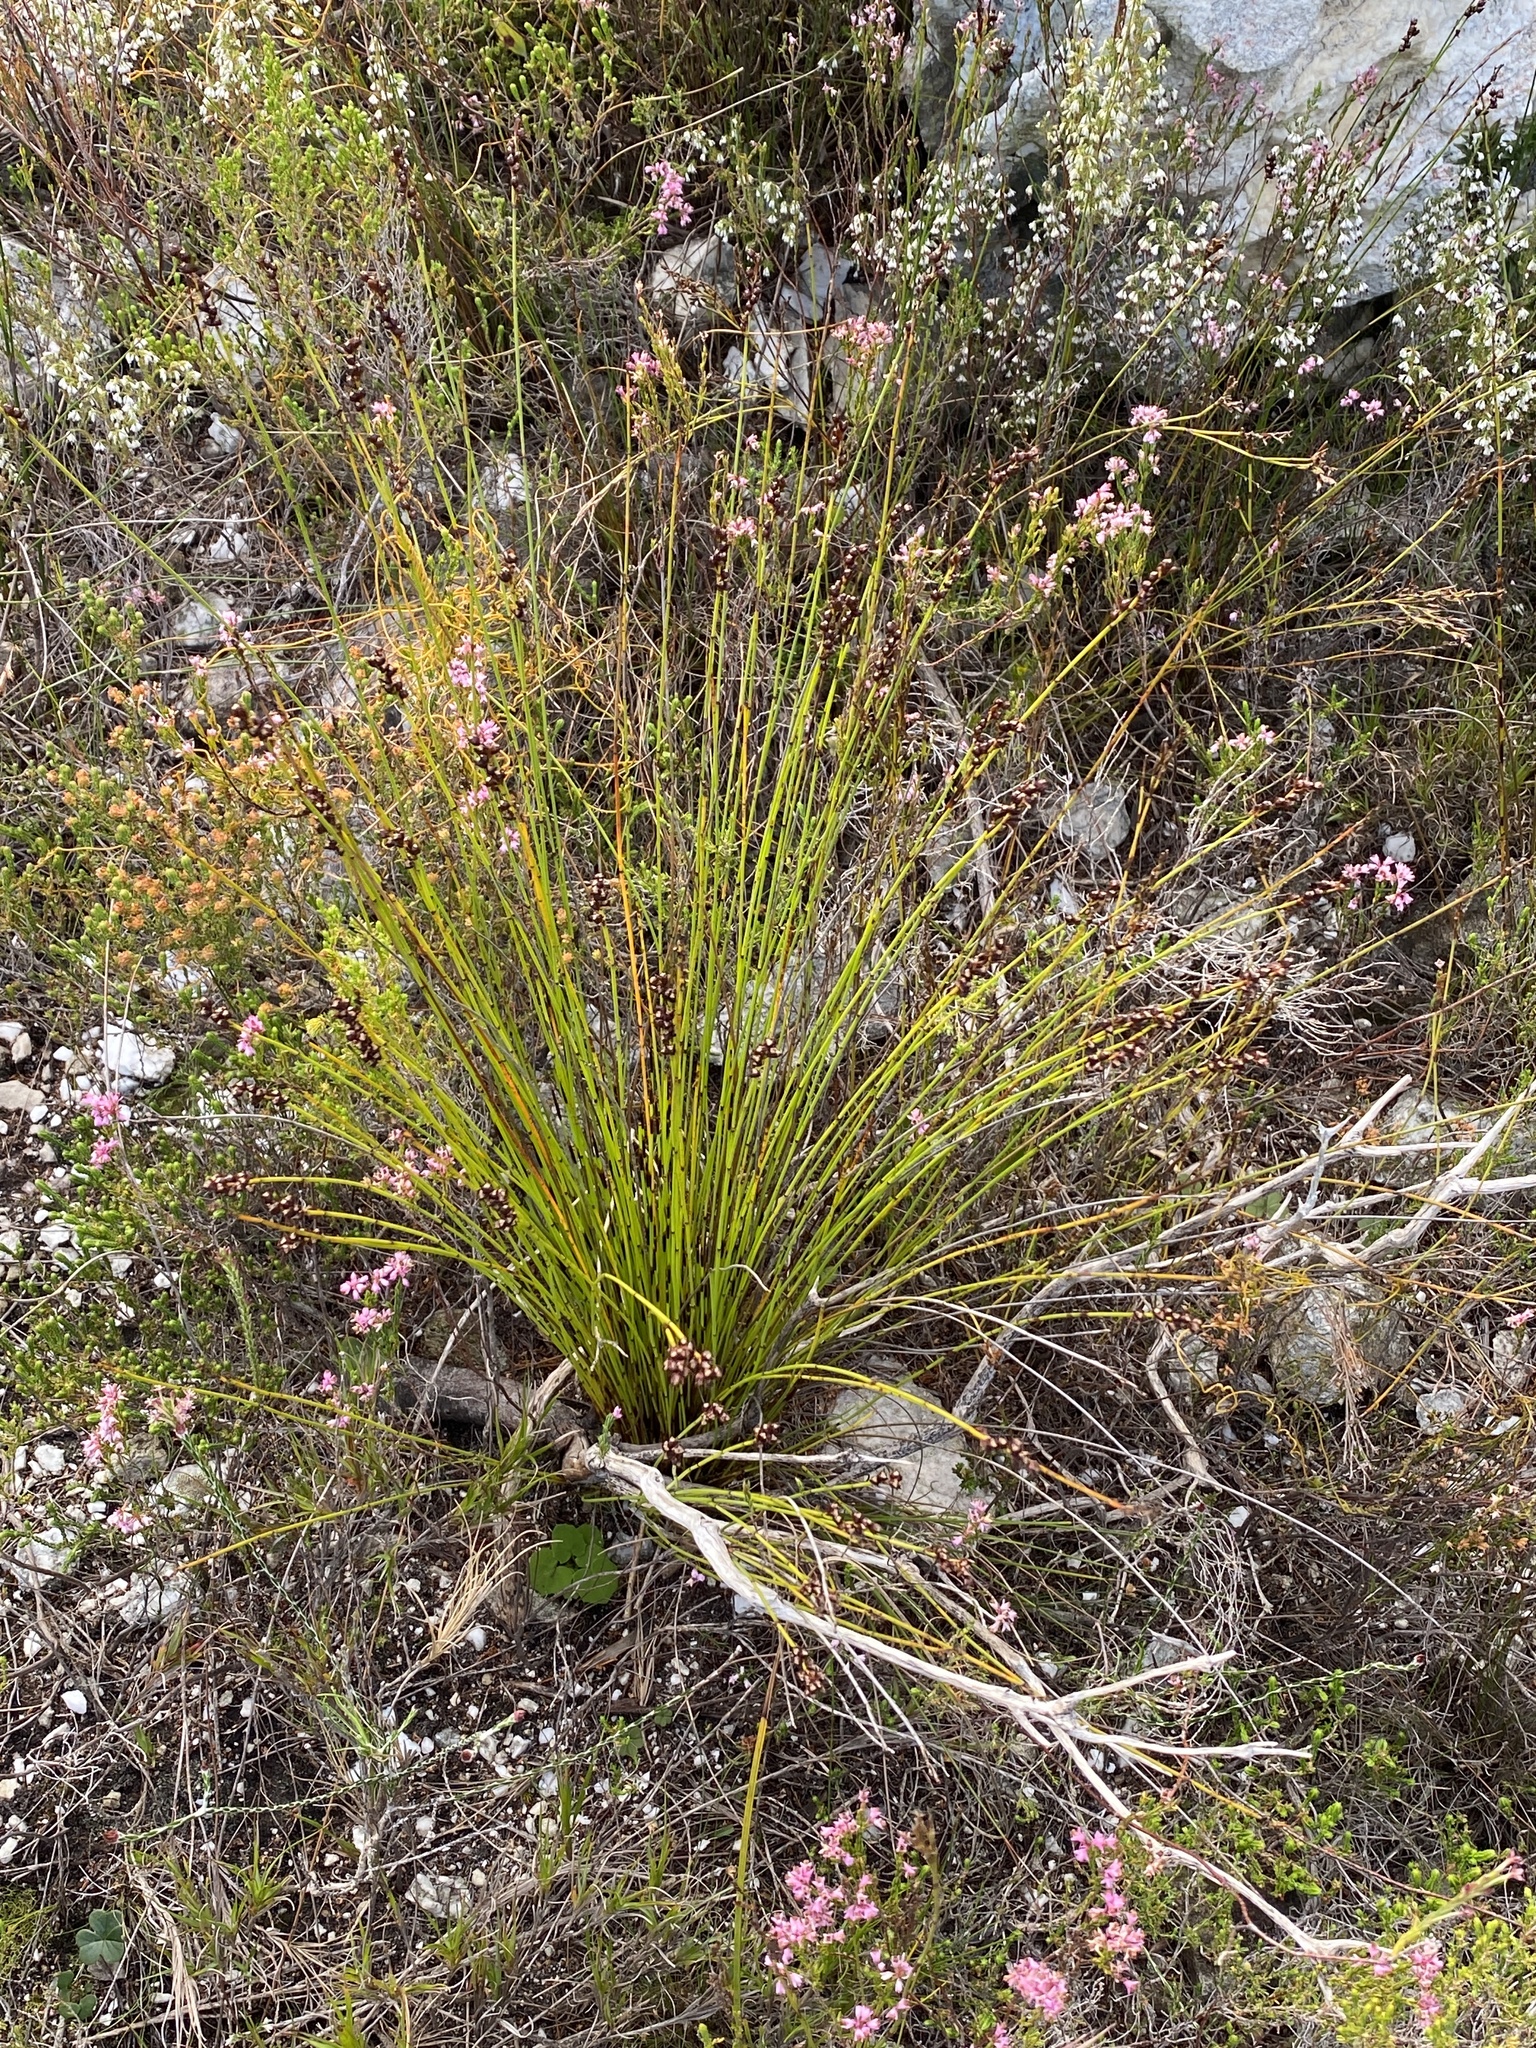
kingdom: Plantae
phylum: Tracheophyta
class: Liliopsida
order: Poales
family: Restionaceae
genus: Elegia
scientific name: Elegia ebracteata
